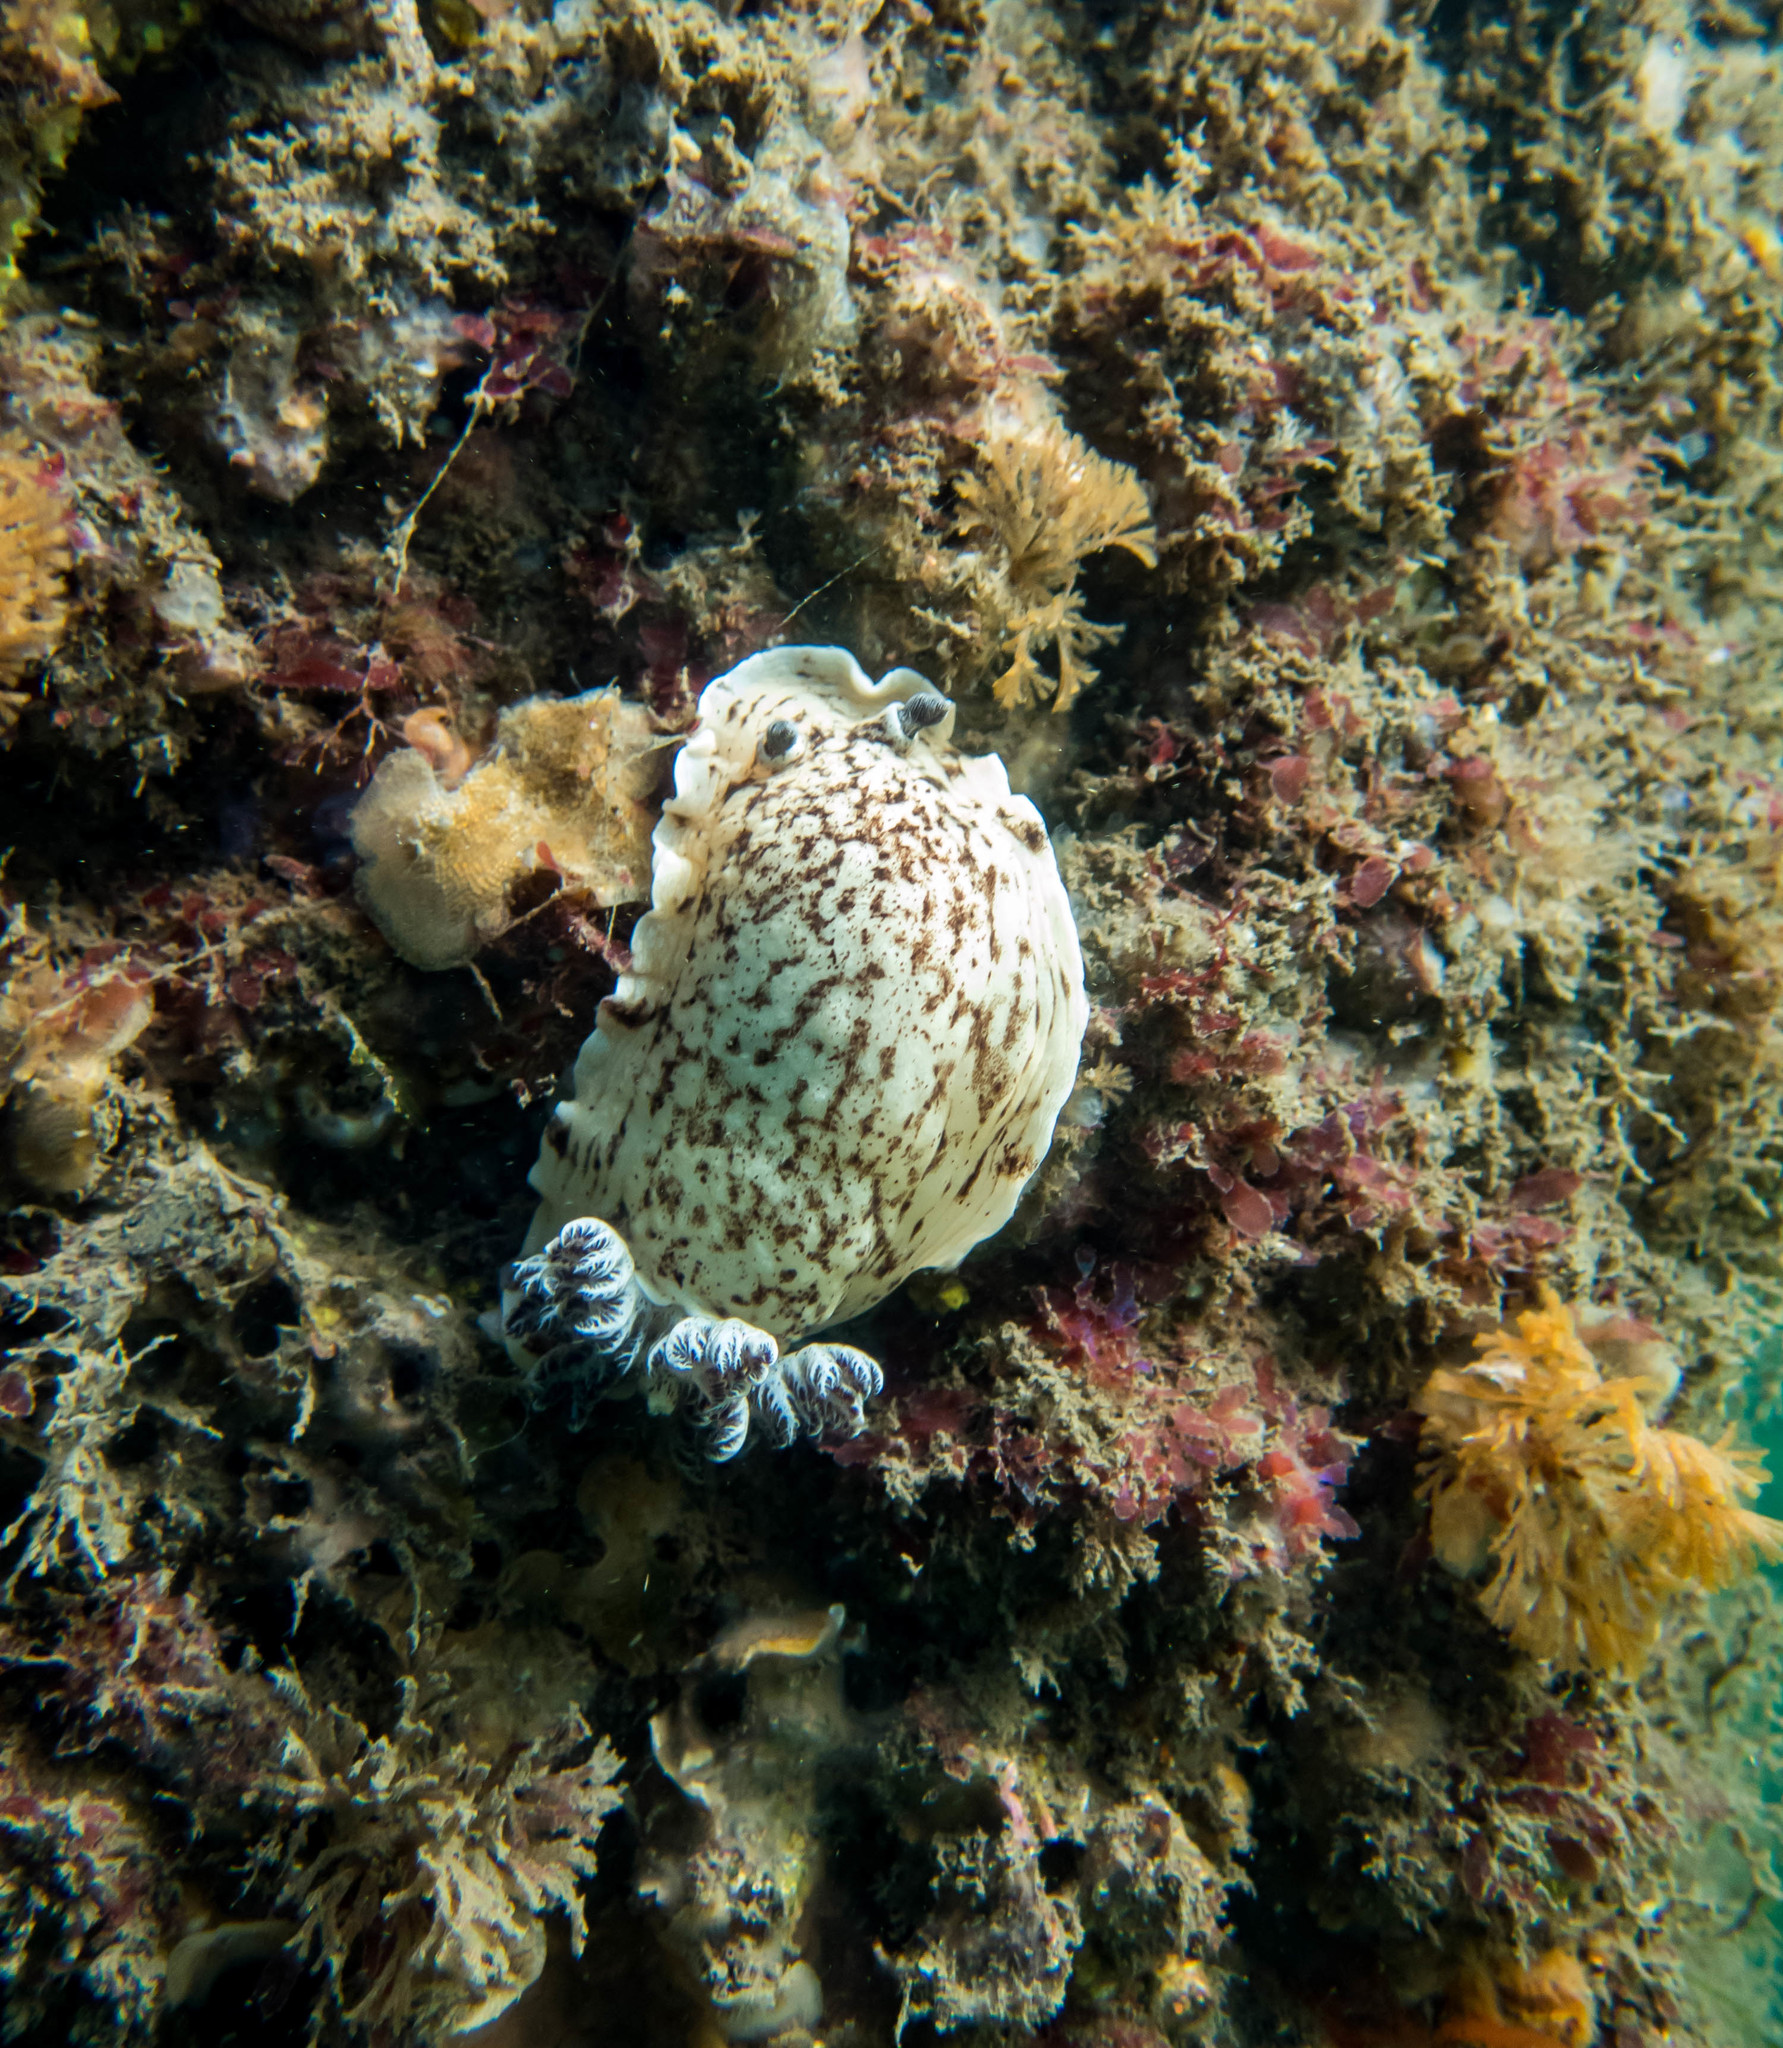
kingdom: Animalia
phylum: Mollusca
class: Gastropoda
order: Nudibranchia
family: Dorididae
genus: Aphelodoris
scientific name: Aphelodoris varia
